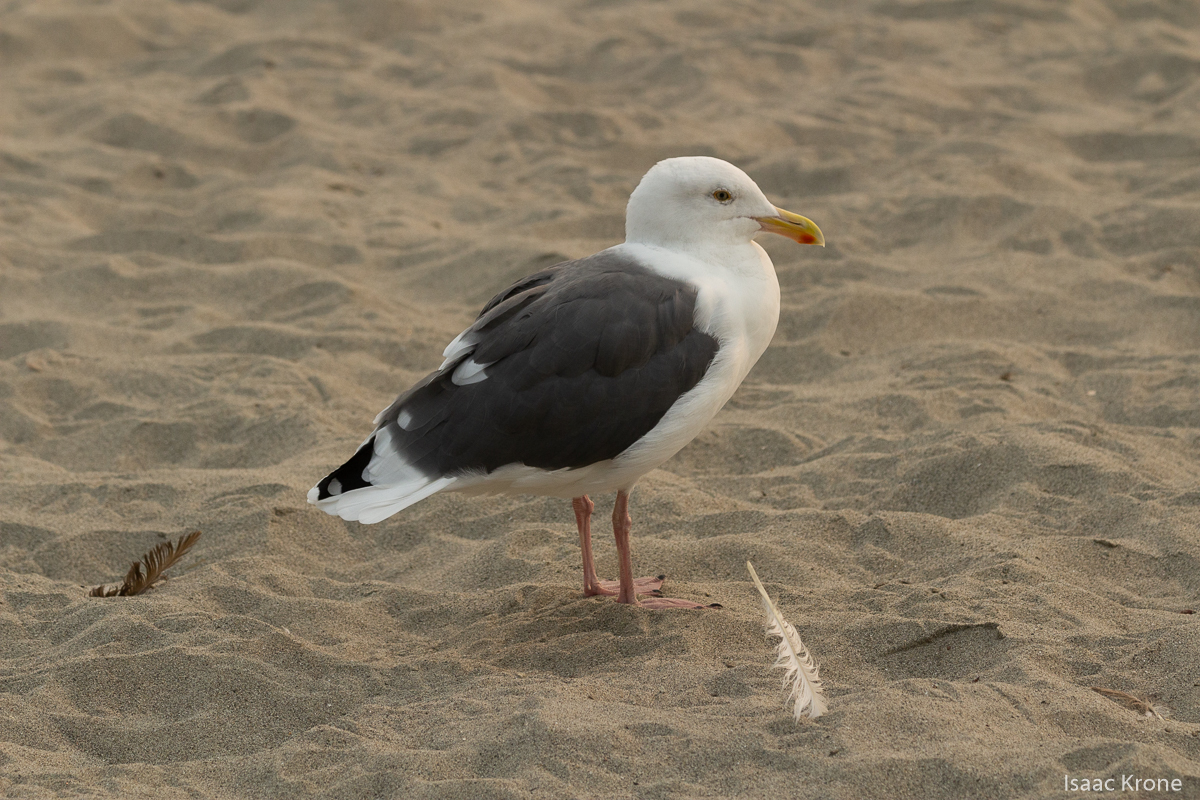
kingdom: Animalia
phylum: Chordata
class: Aves
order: Charadriiformes
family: Laridae
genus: Larus
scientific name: Larus occidentalis
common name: Western gull
